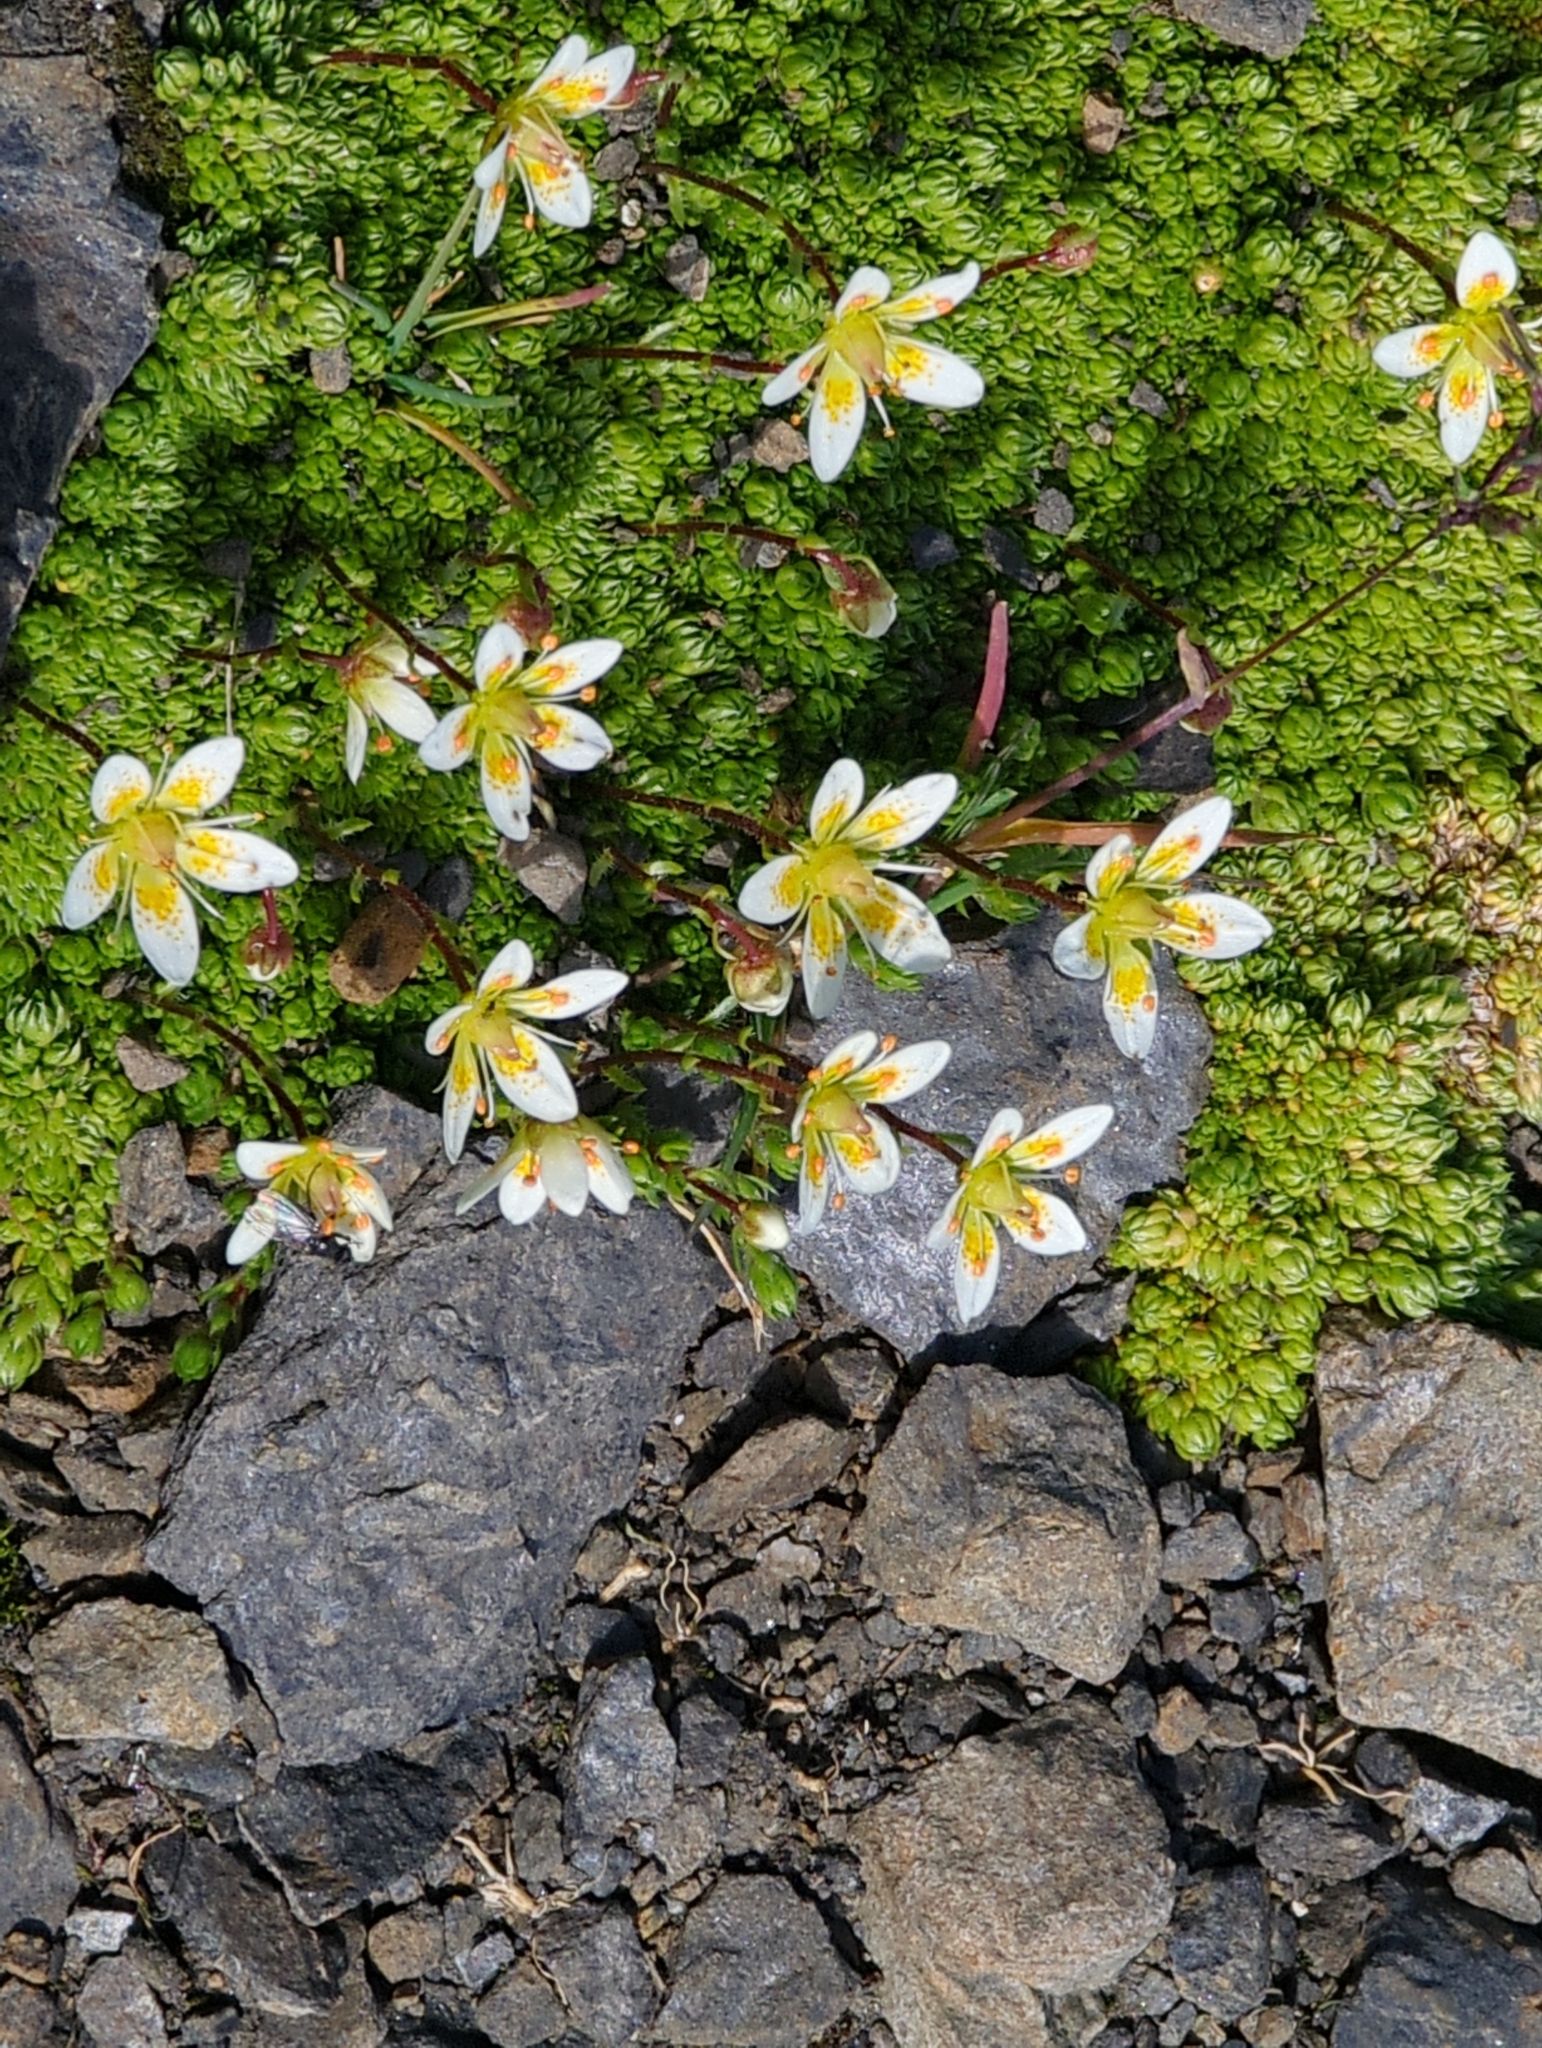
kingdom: Plantae
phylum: Tracheophyta
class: Magnoliopsida
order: Saxifragales
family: Saxifragaceae
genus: Saxifraga
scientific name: Saxifraga bryoides
